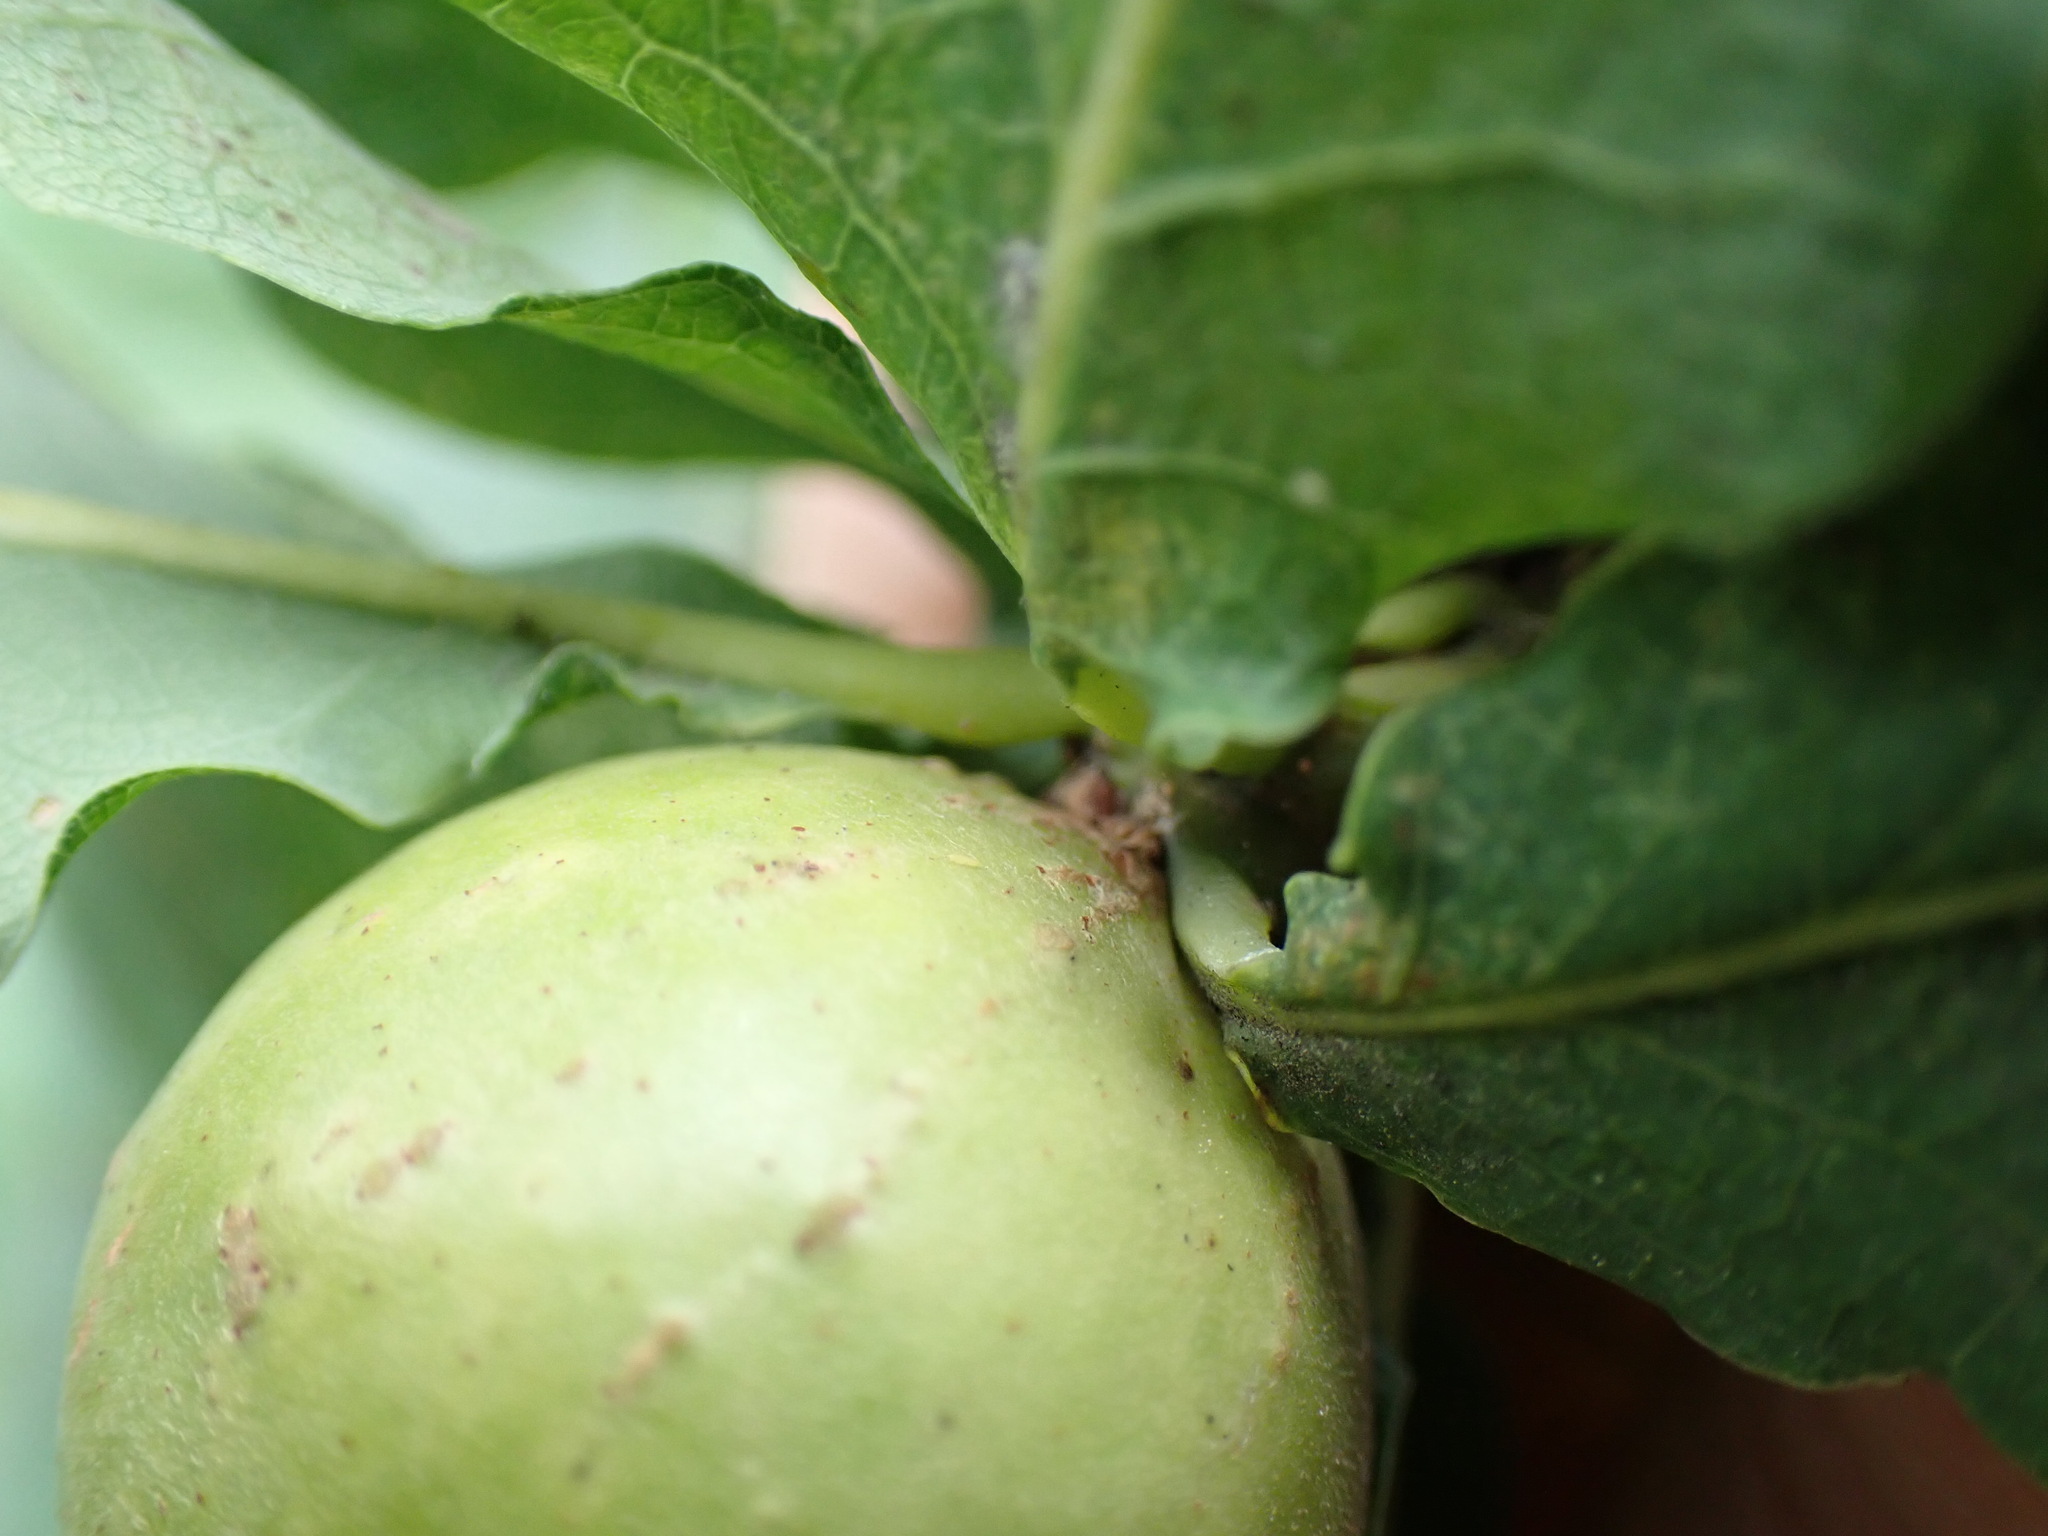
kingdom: Animalia
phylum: Arthropoda
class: Insecta
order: Hymenoptera
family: Cynipidae
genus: Andricus
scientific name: Andricus kollari
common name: Marble gall
